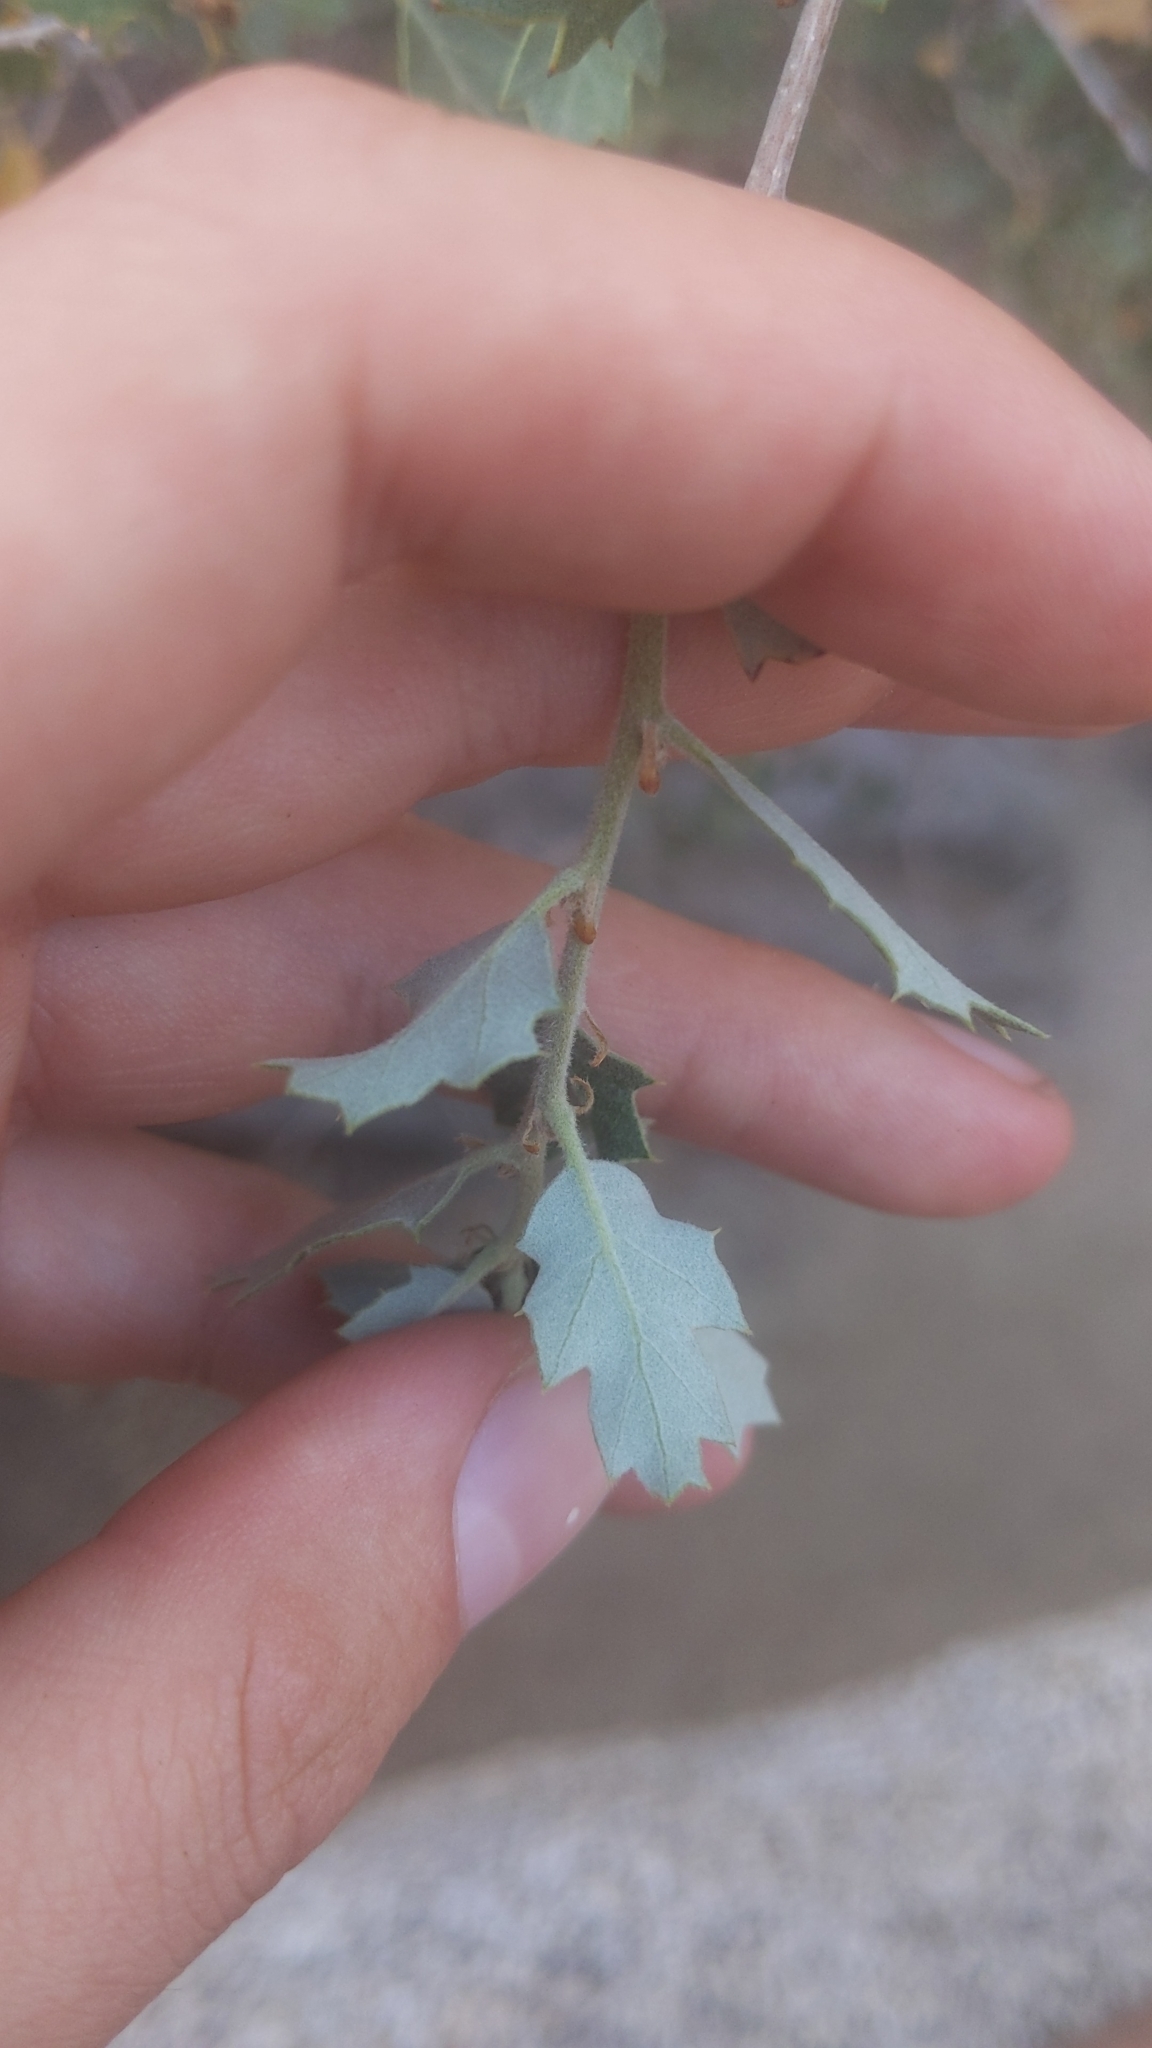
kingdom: Plantae
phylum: Tracheophyta
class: Magnoliopsida
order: Fagales
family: Fagaceae
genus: Quercus
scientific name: Quercus cornelius-mulleri
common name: Muller oak
